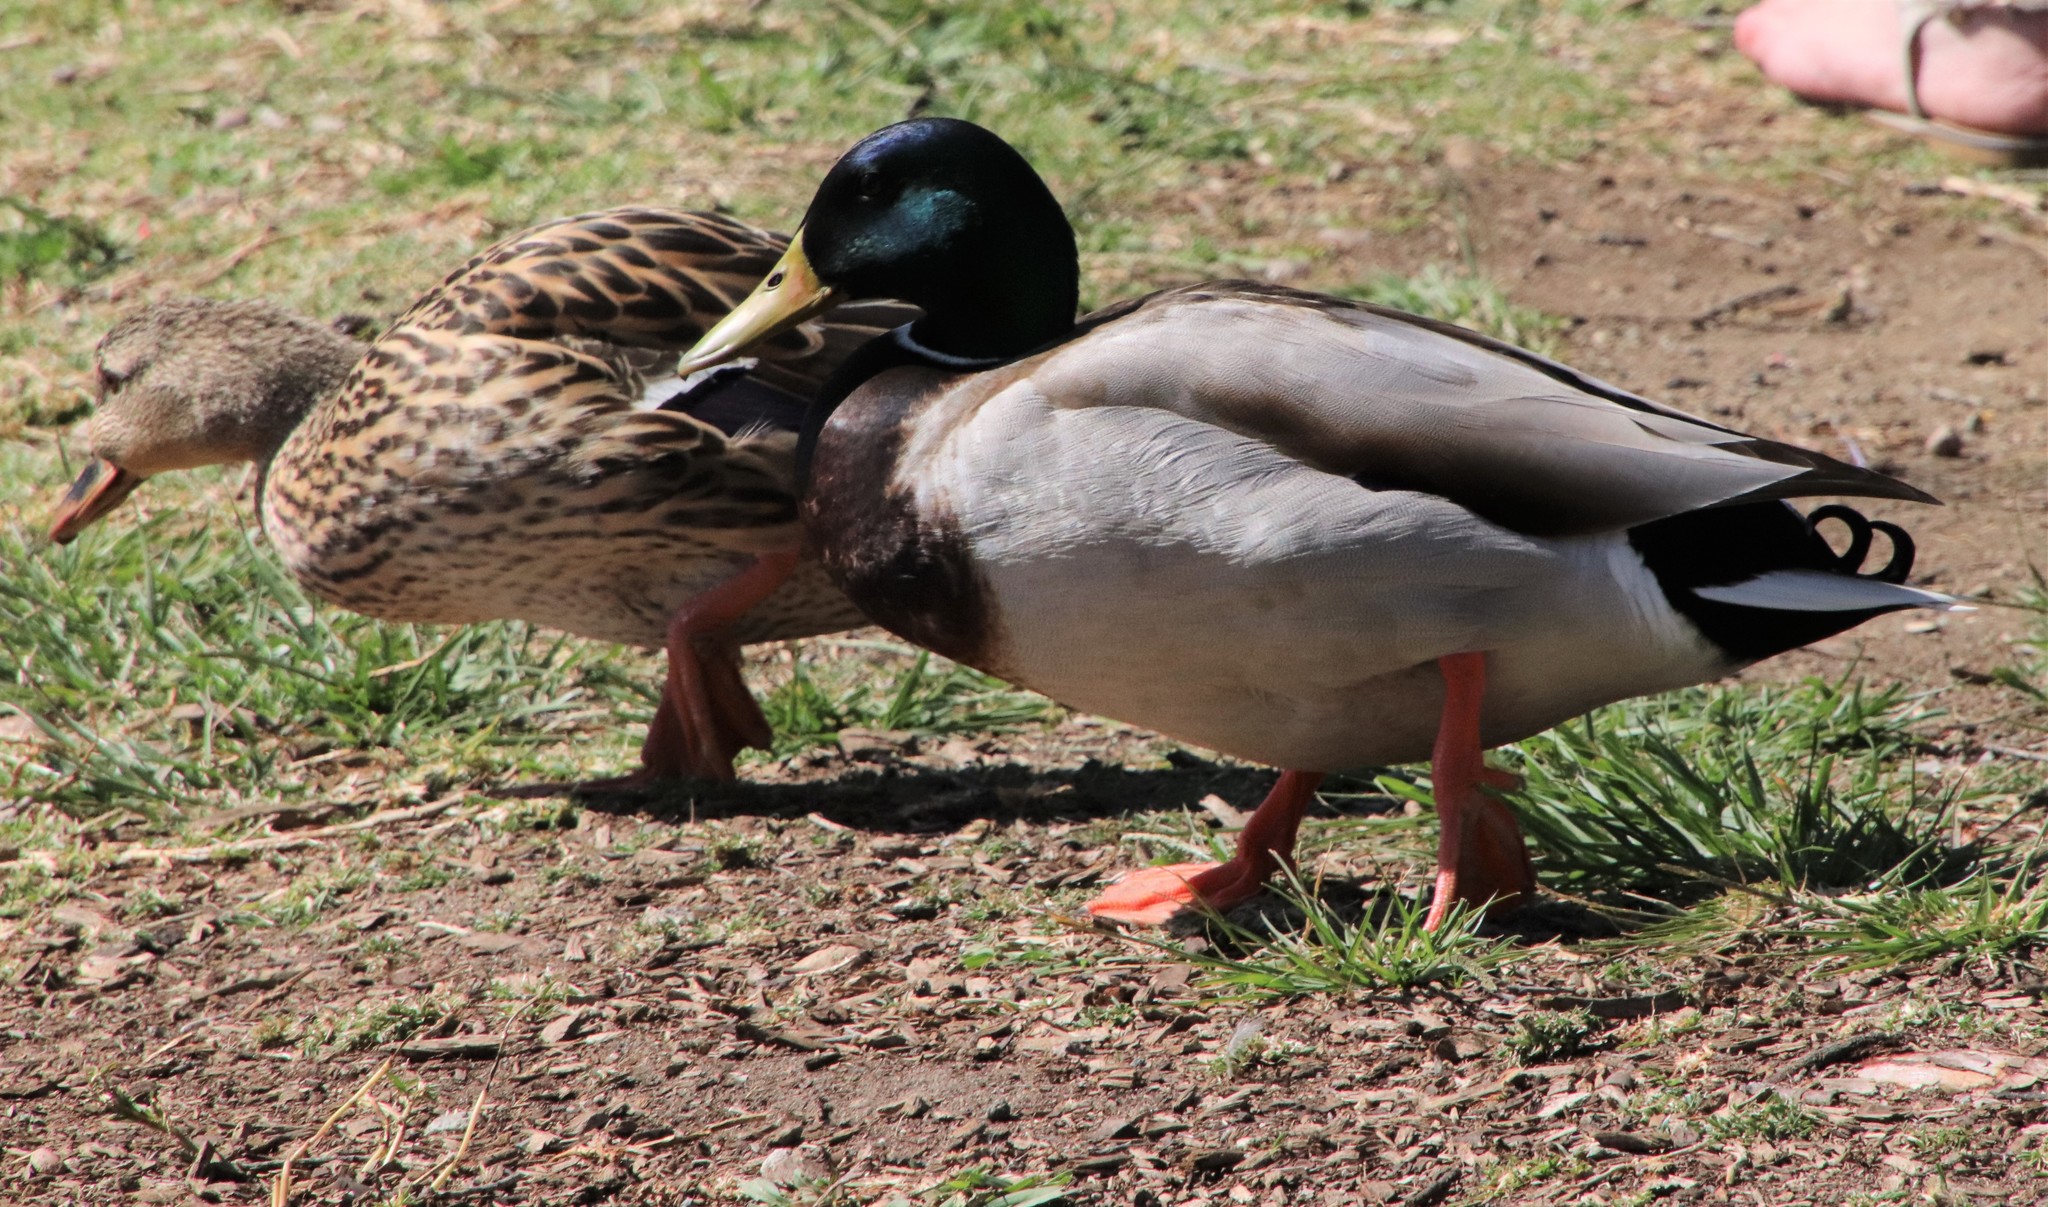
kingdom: Animalia
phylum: Chordata
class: Aves
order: Anseriformes
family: Anatidae
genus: Anas
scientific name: Anas platyrhynchos
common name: Mallard
